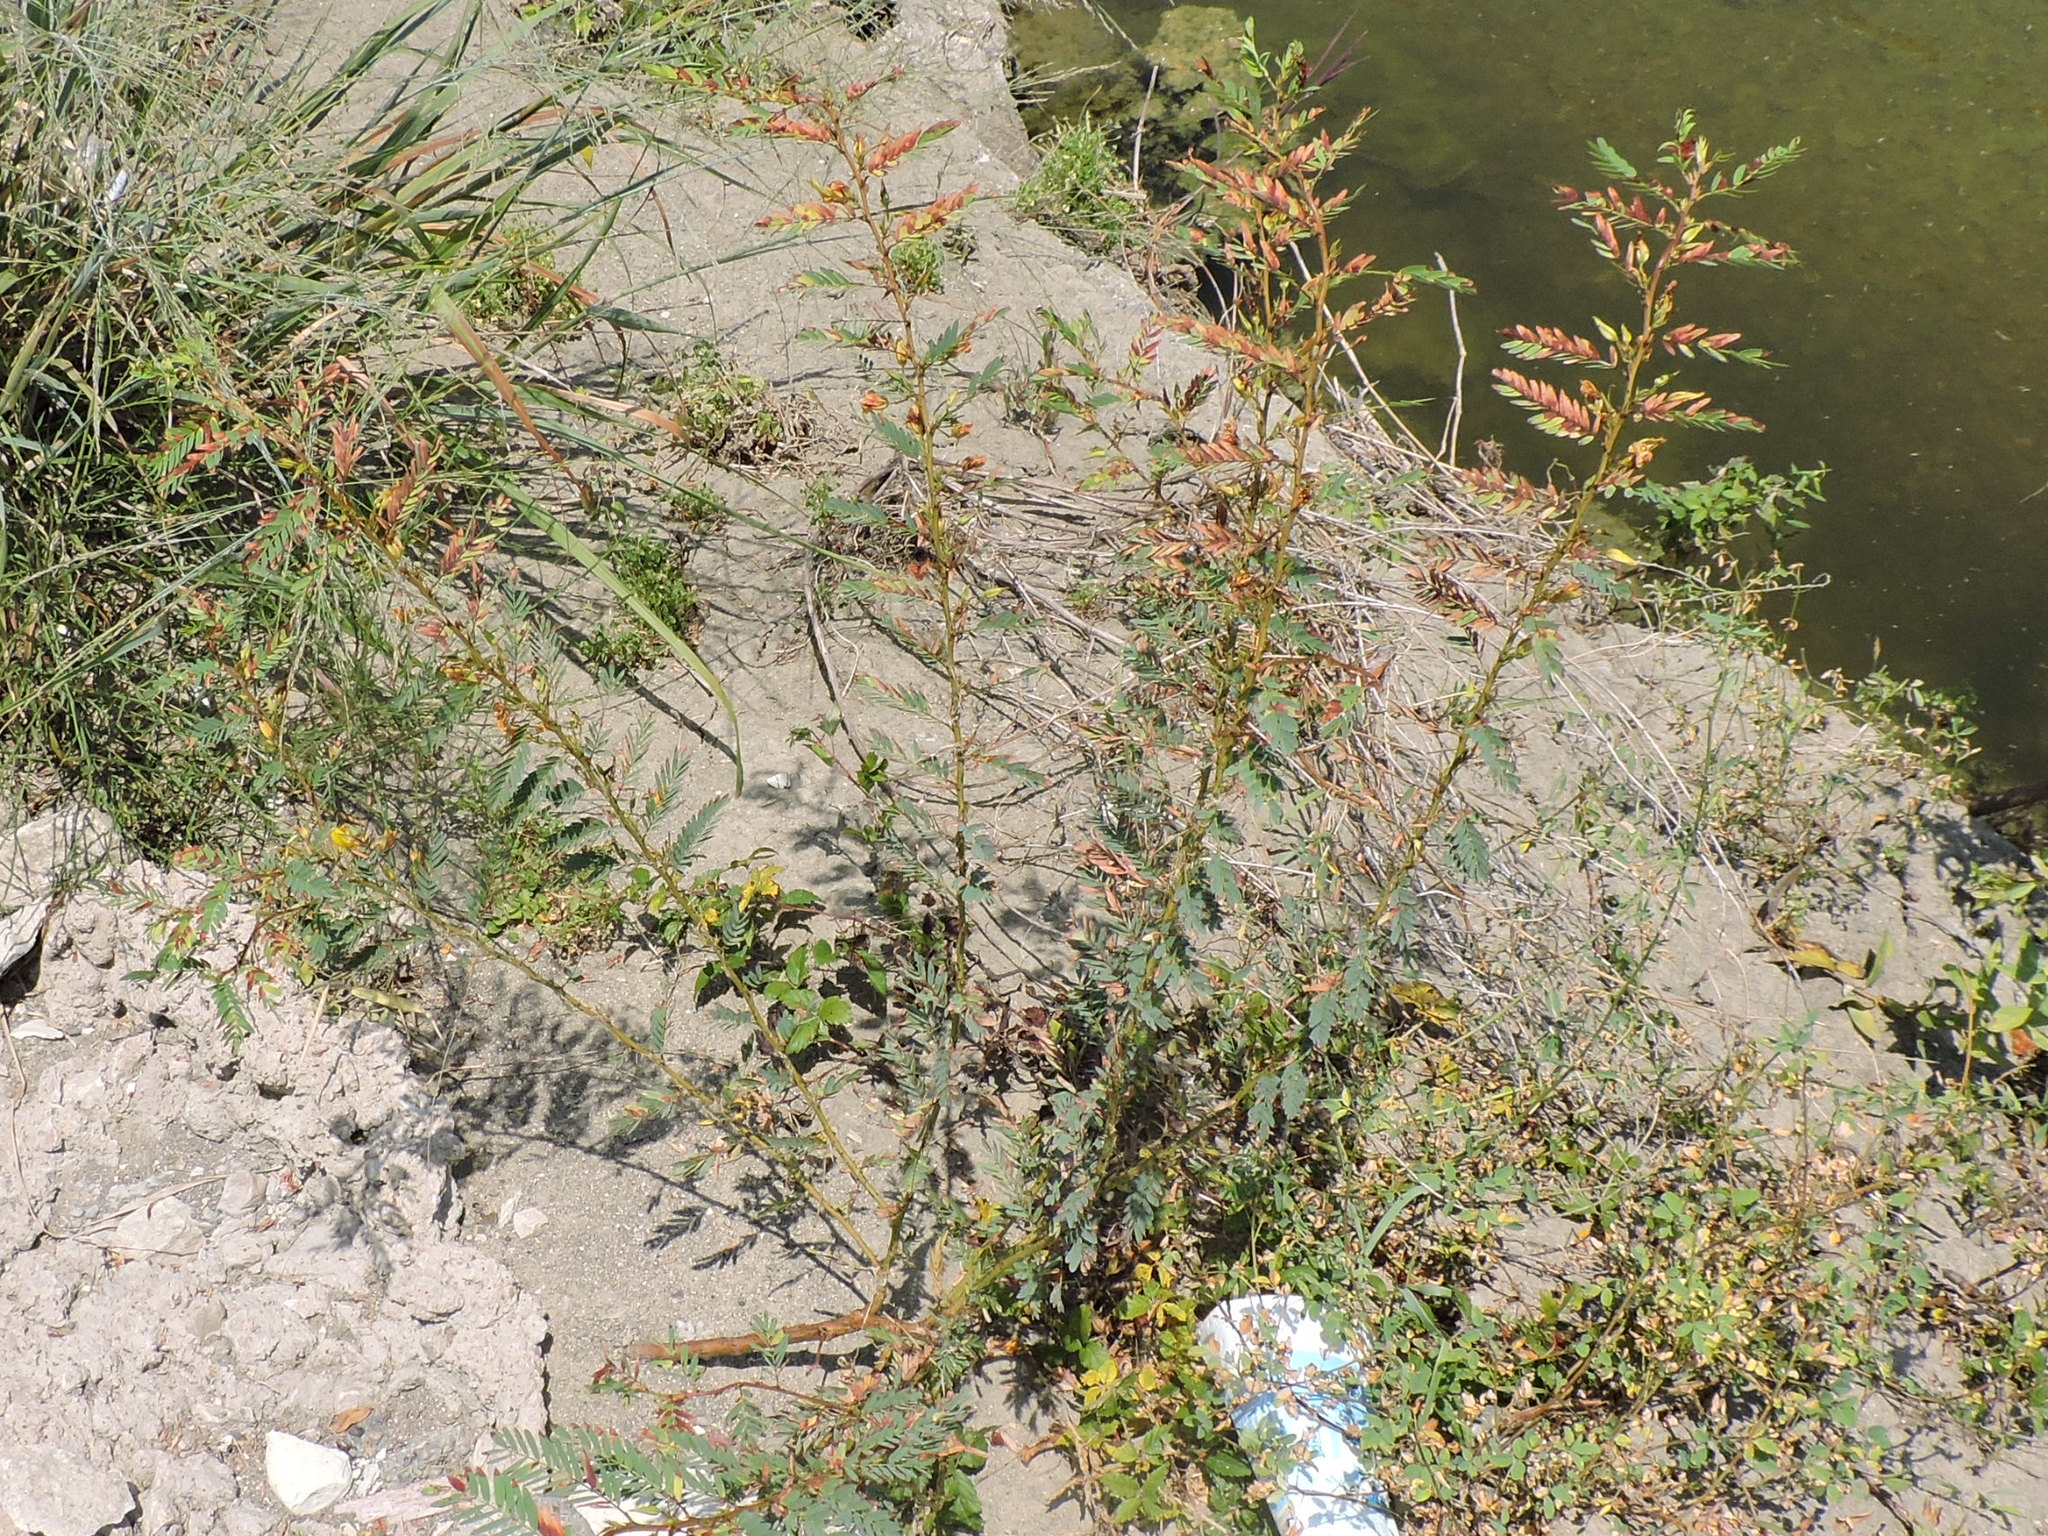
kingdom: Plantae
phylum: Tracheophyta
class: Magnoliopsida
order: Fabales
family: Fabaceae
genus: Chamaecrista
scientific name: Chamaecrista fasciculata
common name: Golden cassia
